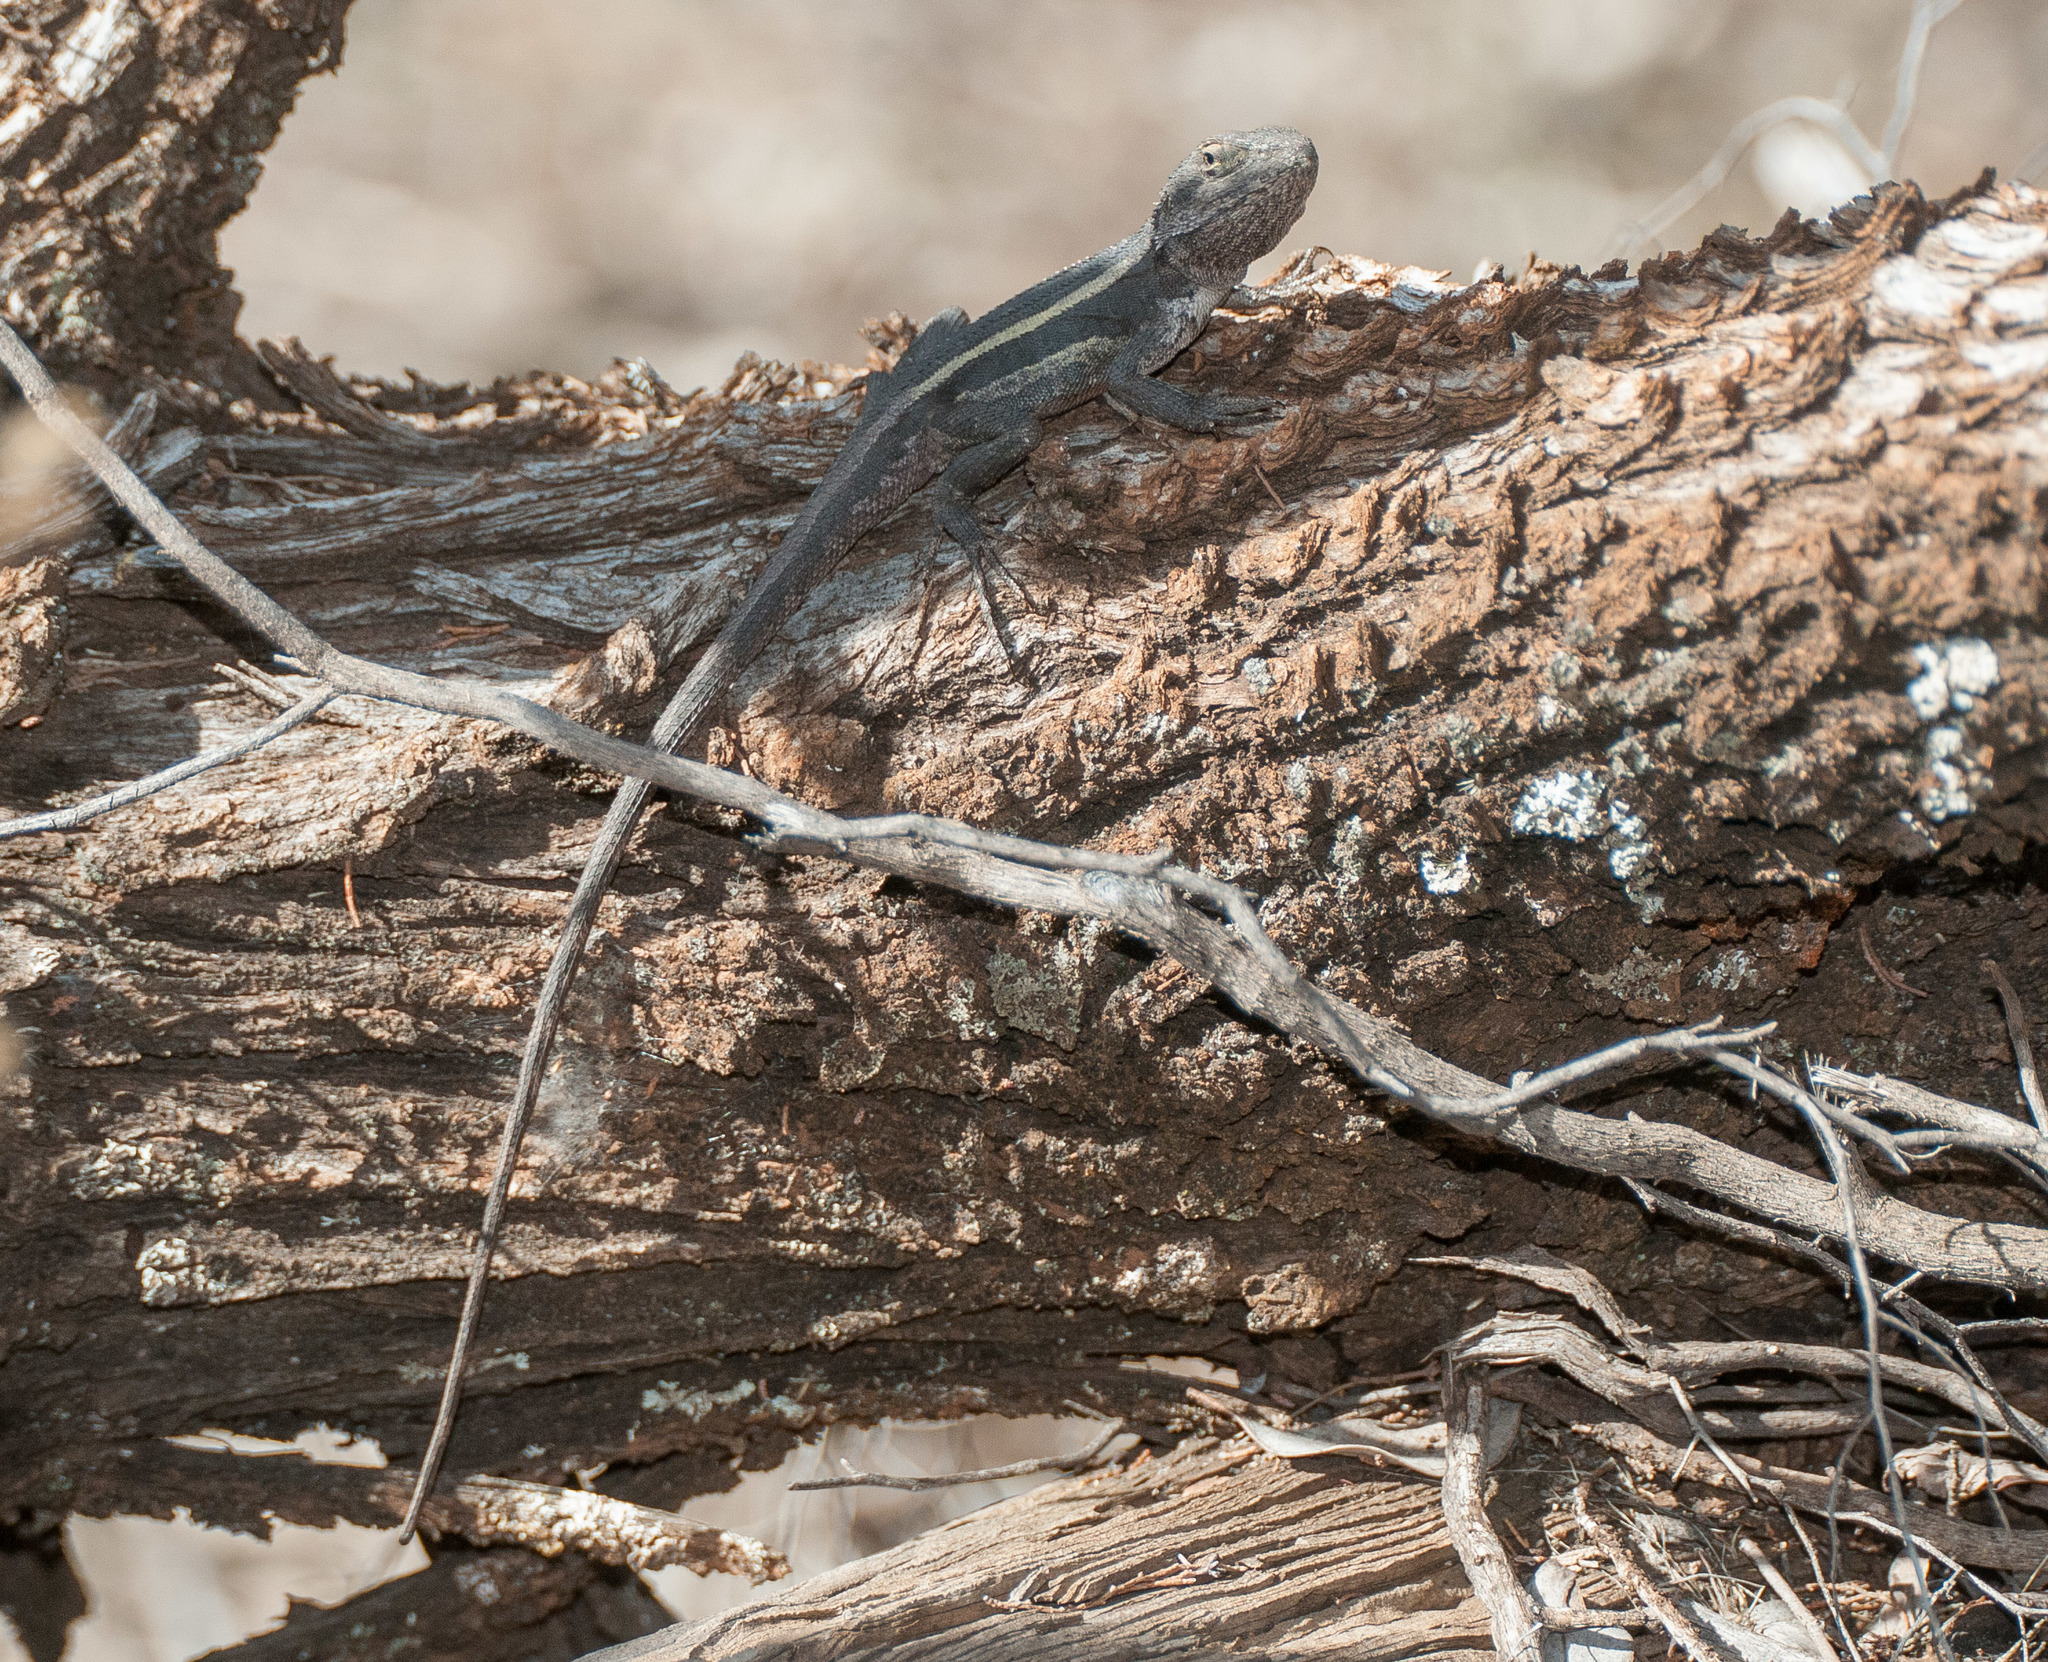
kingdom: Animalia
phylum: Chordata
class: Squamata
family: Agamidae
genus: Diporiphora
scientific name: Diporiphora nobbi
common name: Nobbi
